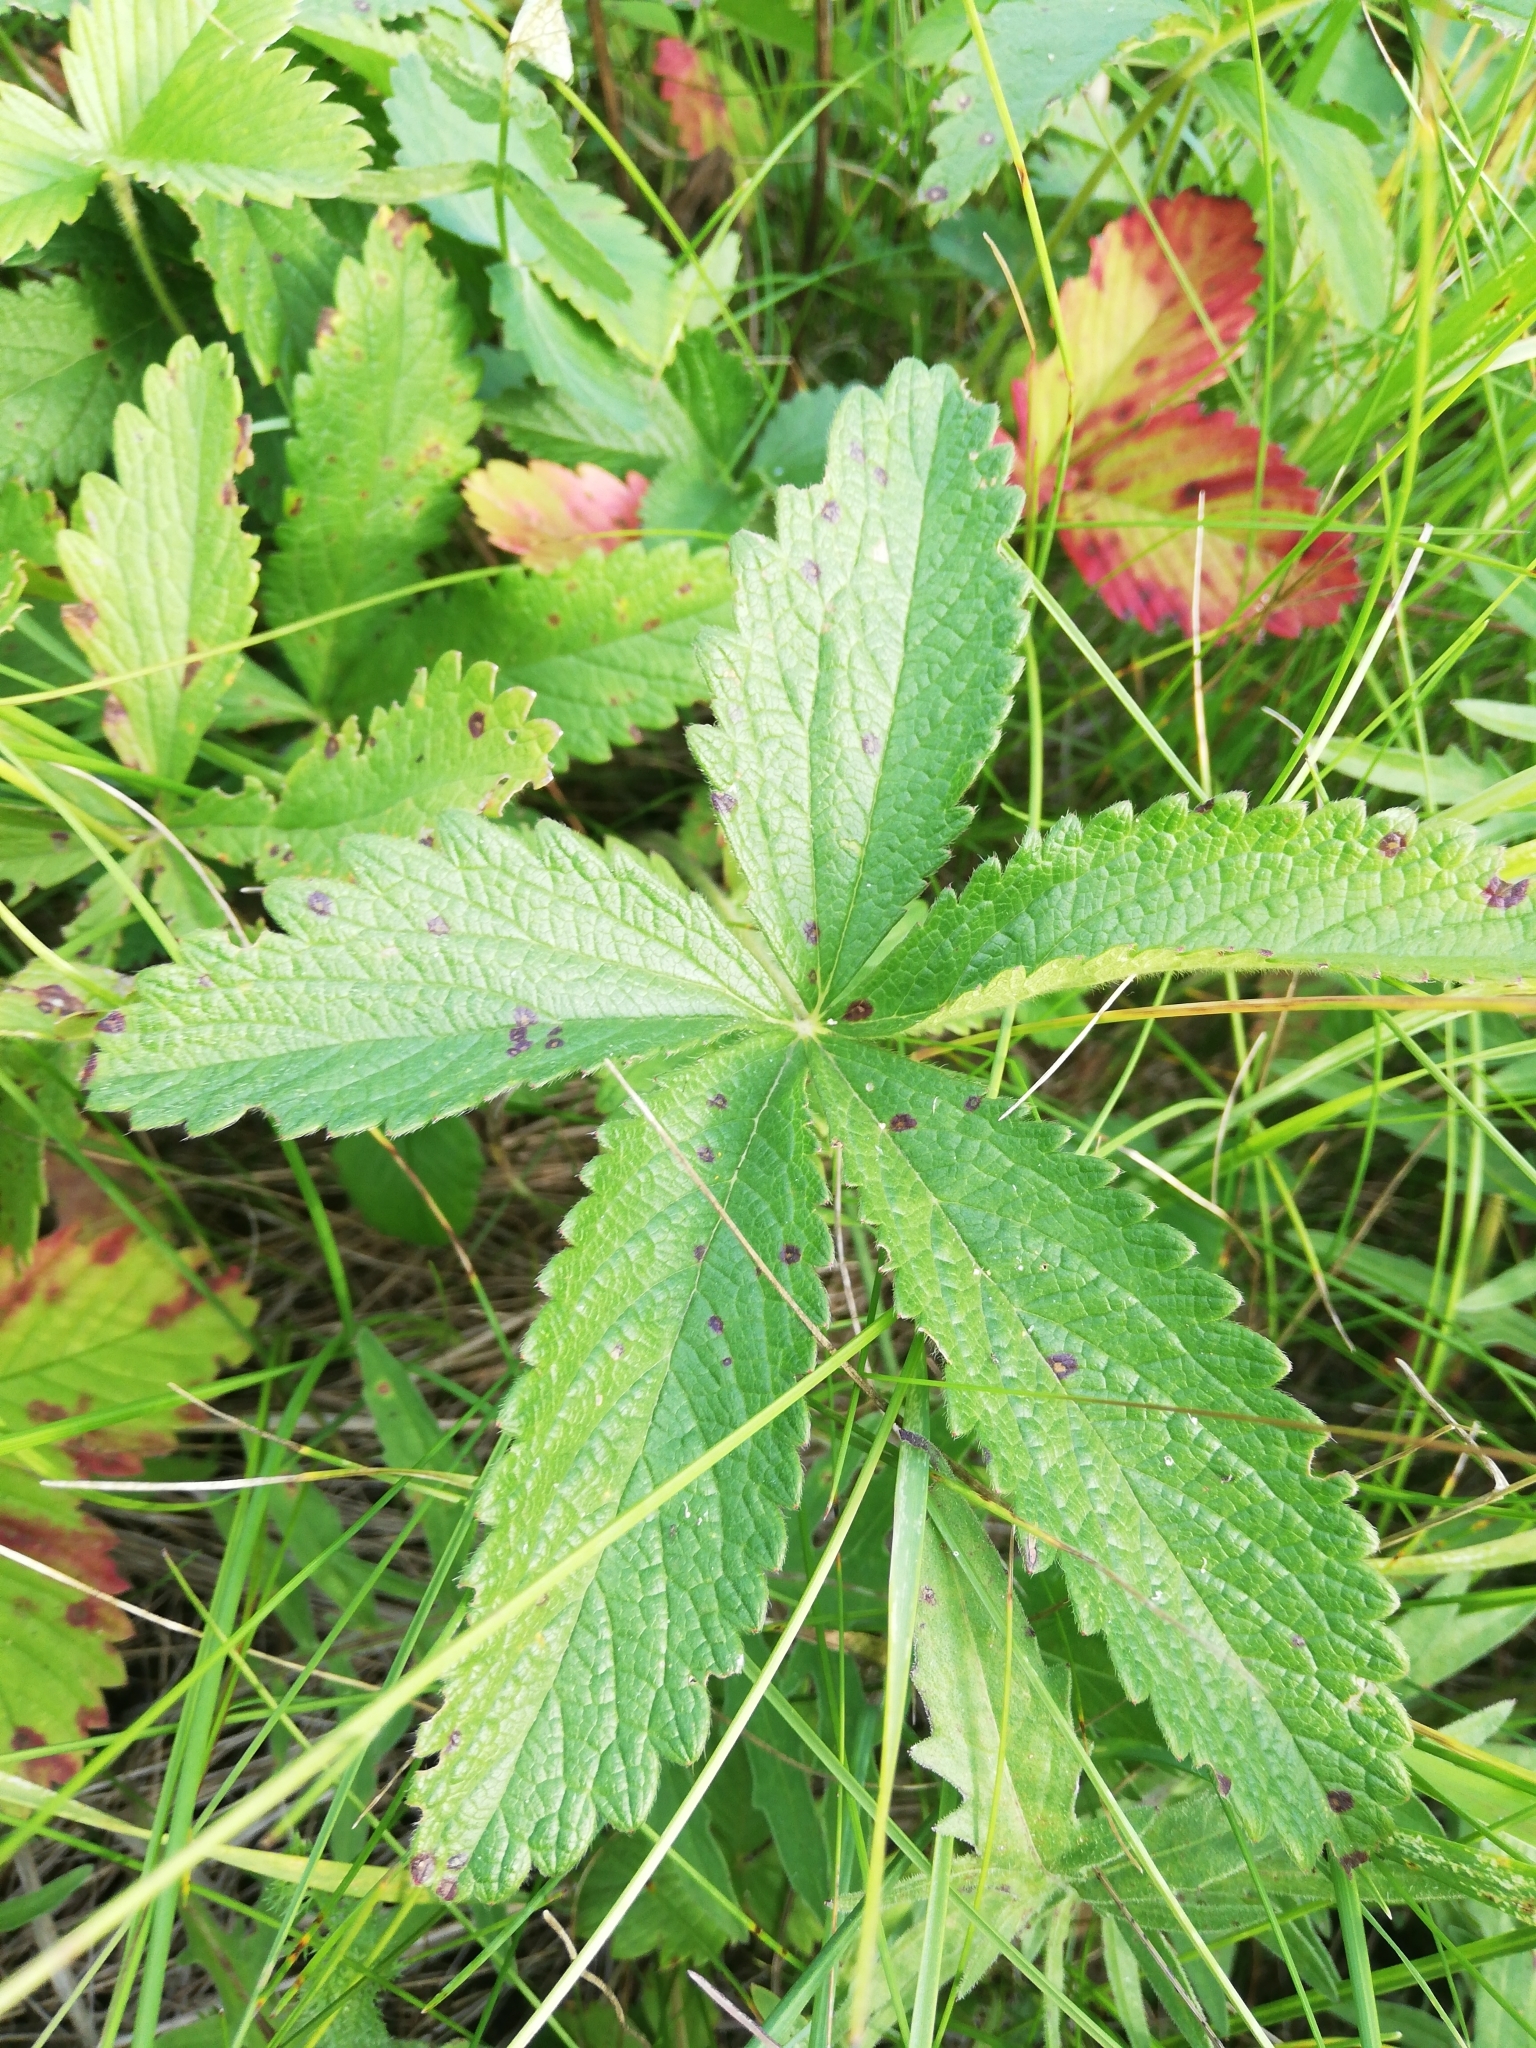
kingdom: Plantae
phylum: Tracheophyta
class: Magnoliopsida
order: Rosales
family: Rosaceae
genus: Potentilla
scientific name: Potentilla chrysantha
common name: Thuringian cinquefoil
